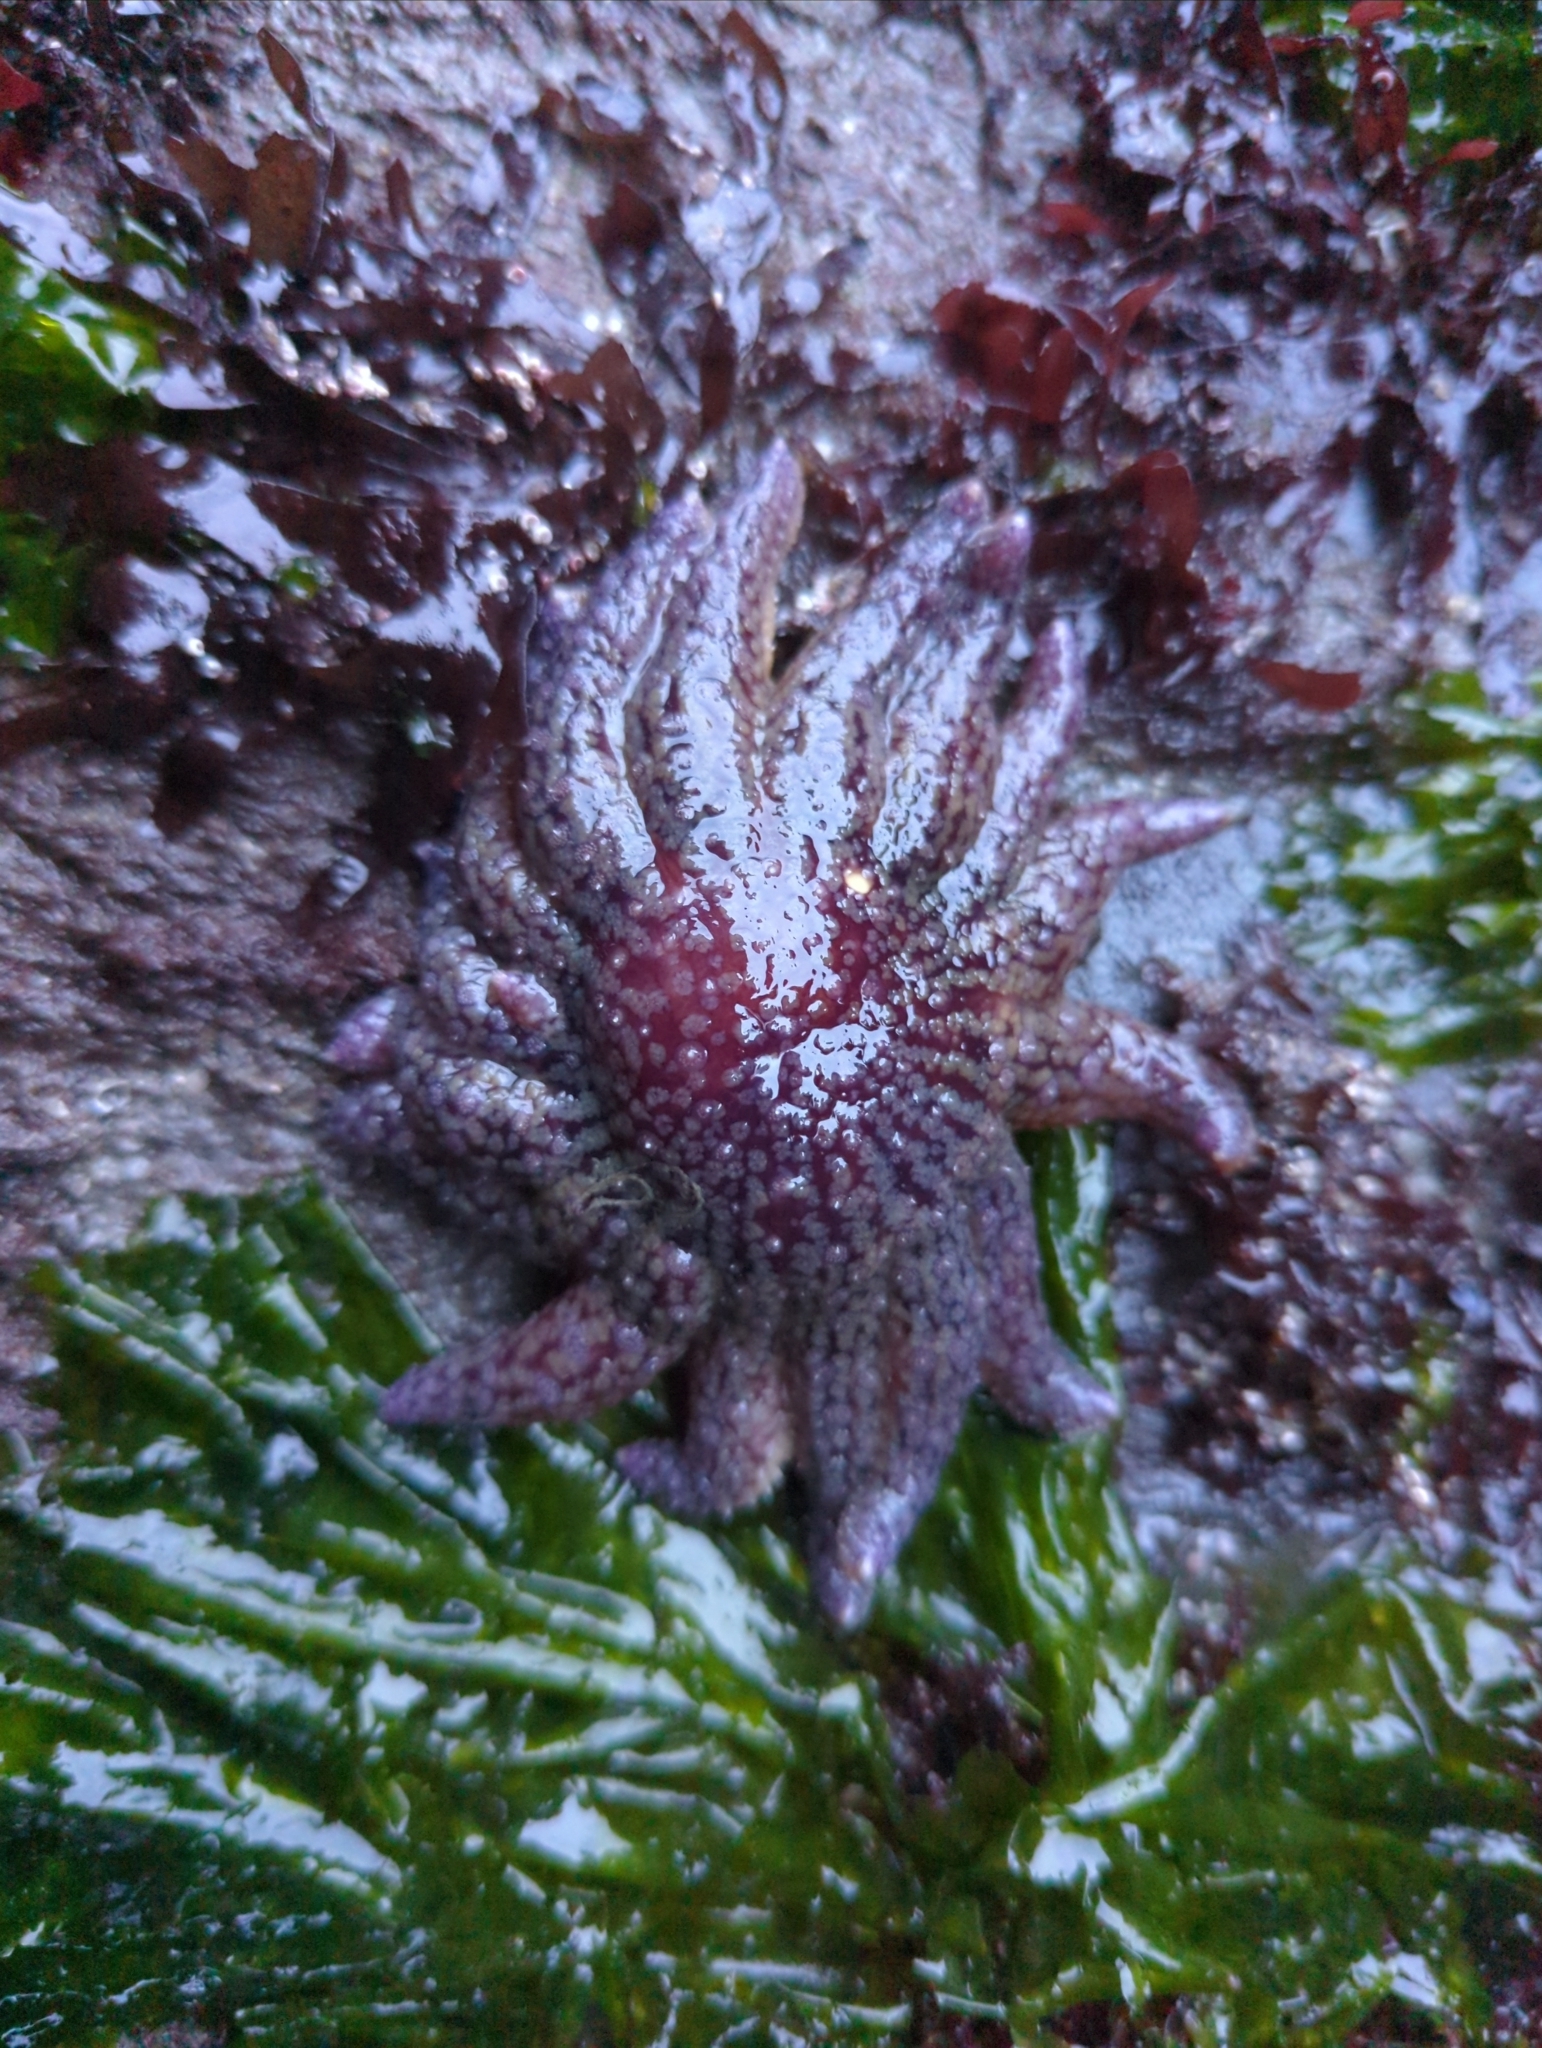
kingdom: Animalia
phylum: Echinodermata
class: Asteroidea
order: Forcipulatida
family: Asteriidae
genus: Pycnopodia
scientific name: Pycnopodia helianthoides
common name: Rag mop
